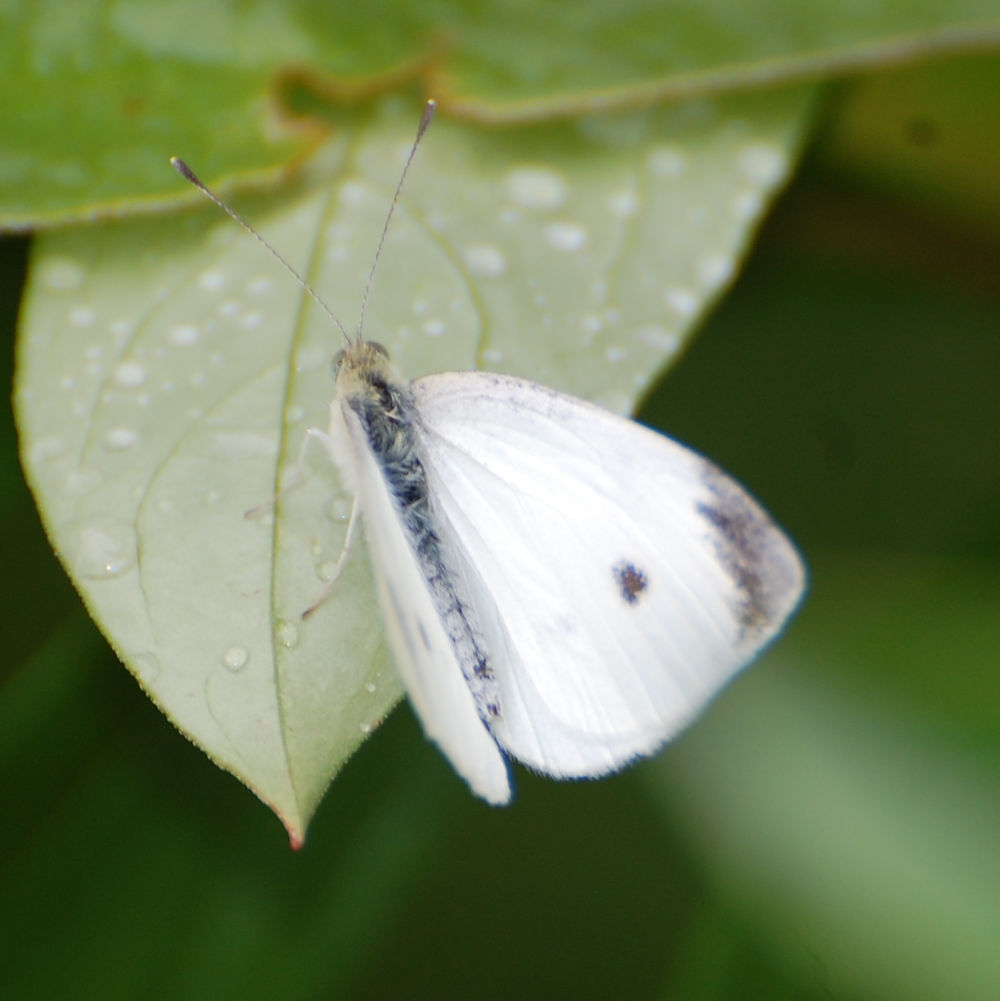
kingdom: Animalia
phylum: Arthropoda
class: Insecta
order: Lepidoptera
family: Pieridae
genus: Pieris
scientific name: Pieris rapae
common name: Small white
